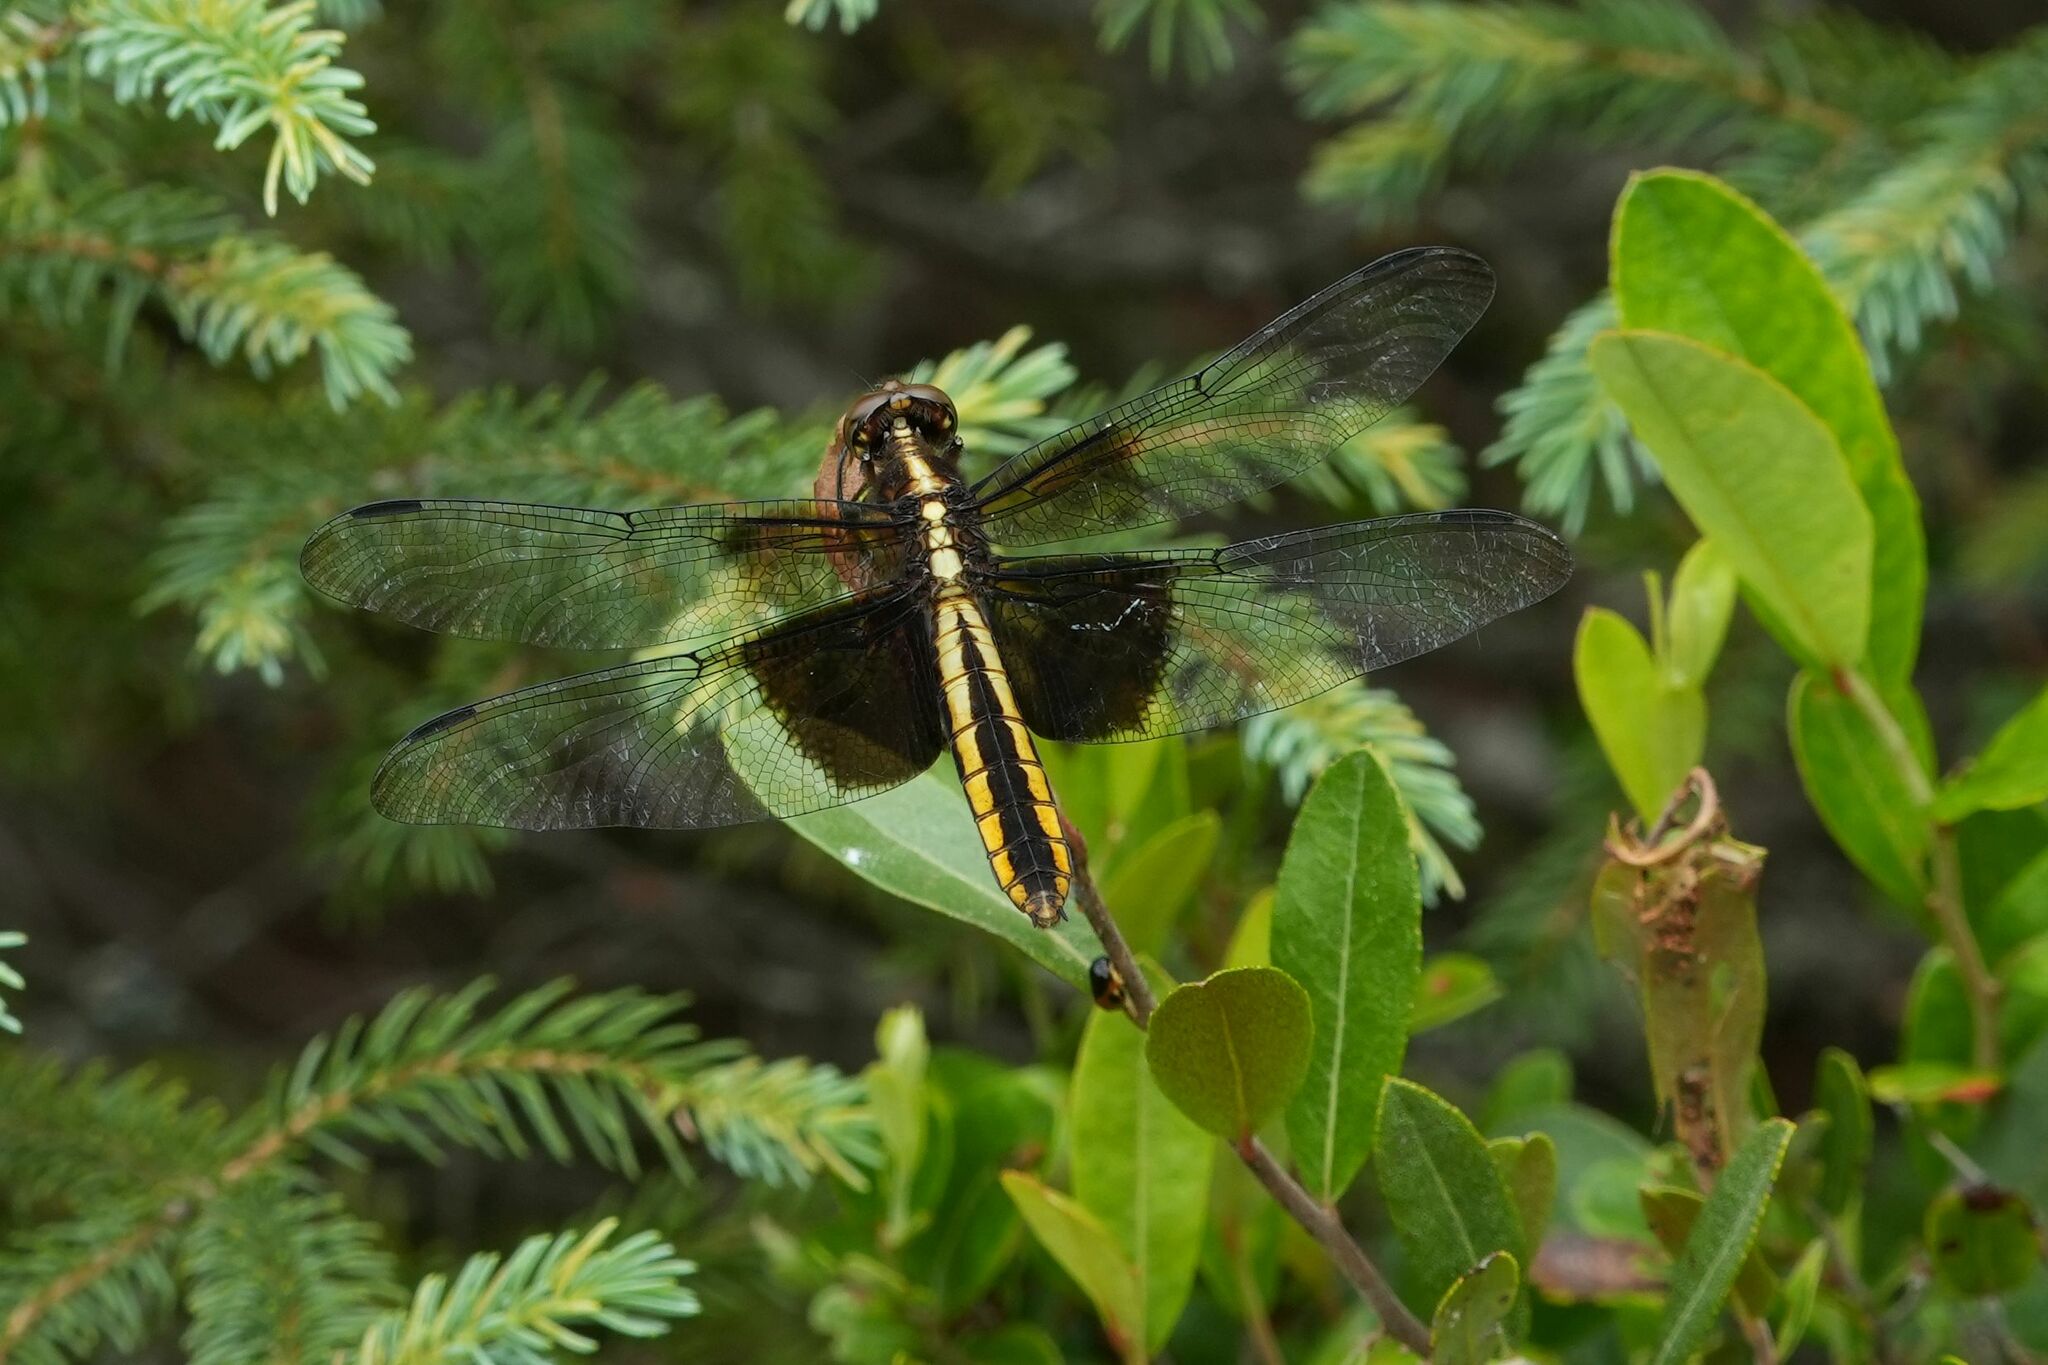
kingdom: Animalia
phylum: Arthropoda
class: Insecta
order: Odonata
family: Libellulidae
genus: Libellula
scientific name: Libellula luctuosa
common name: Widow skimmer
